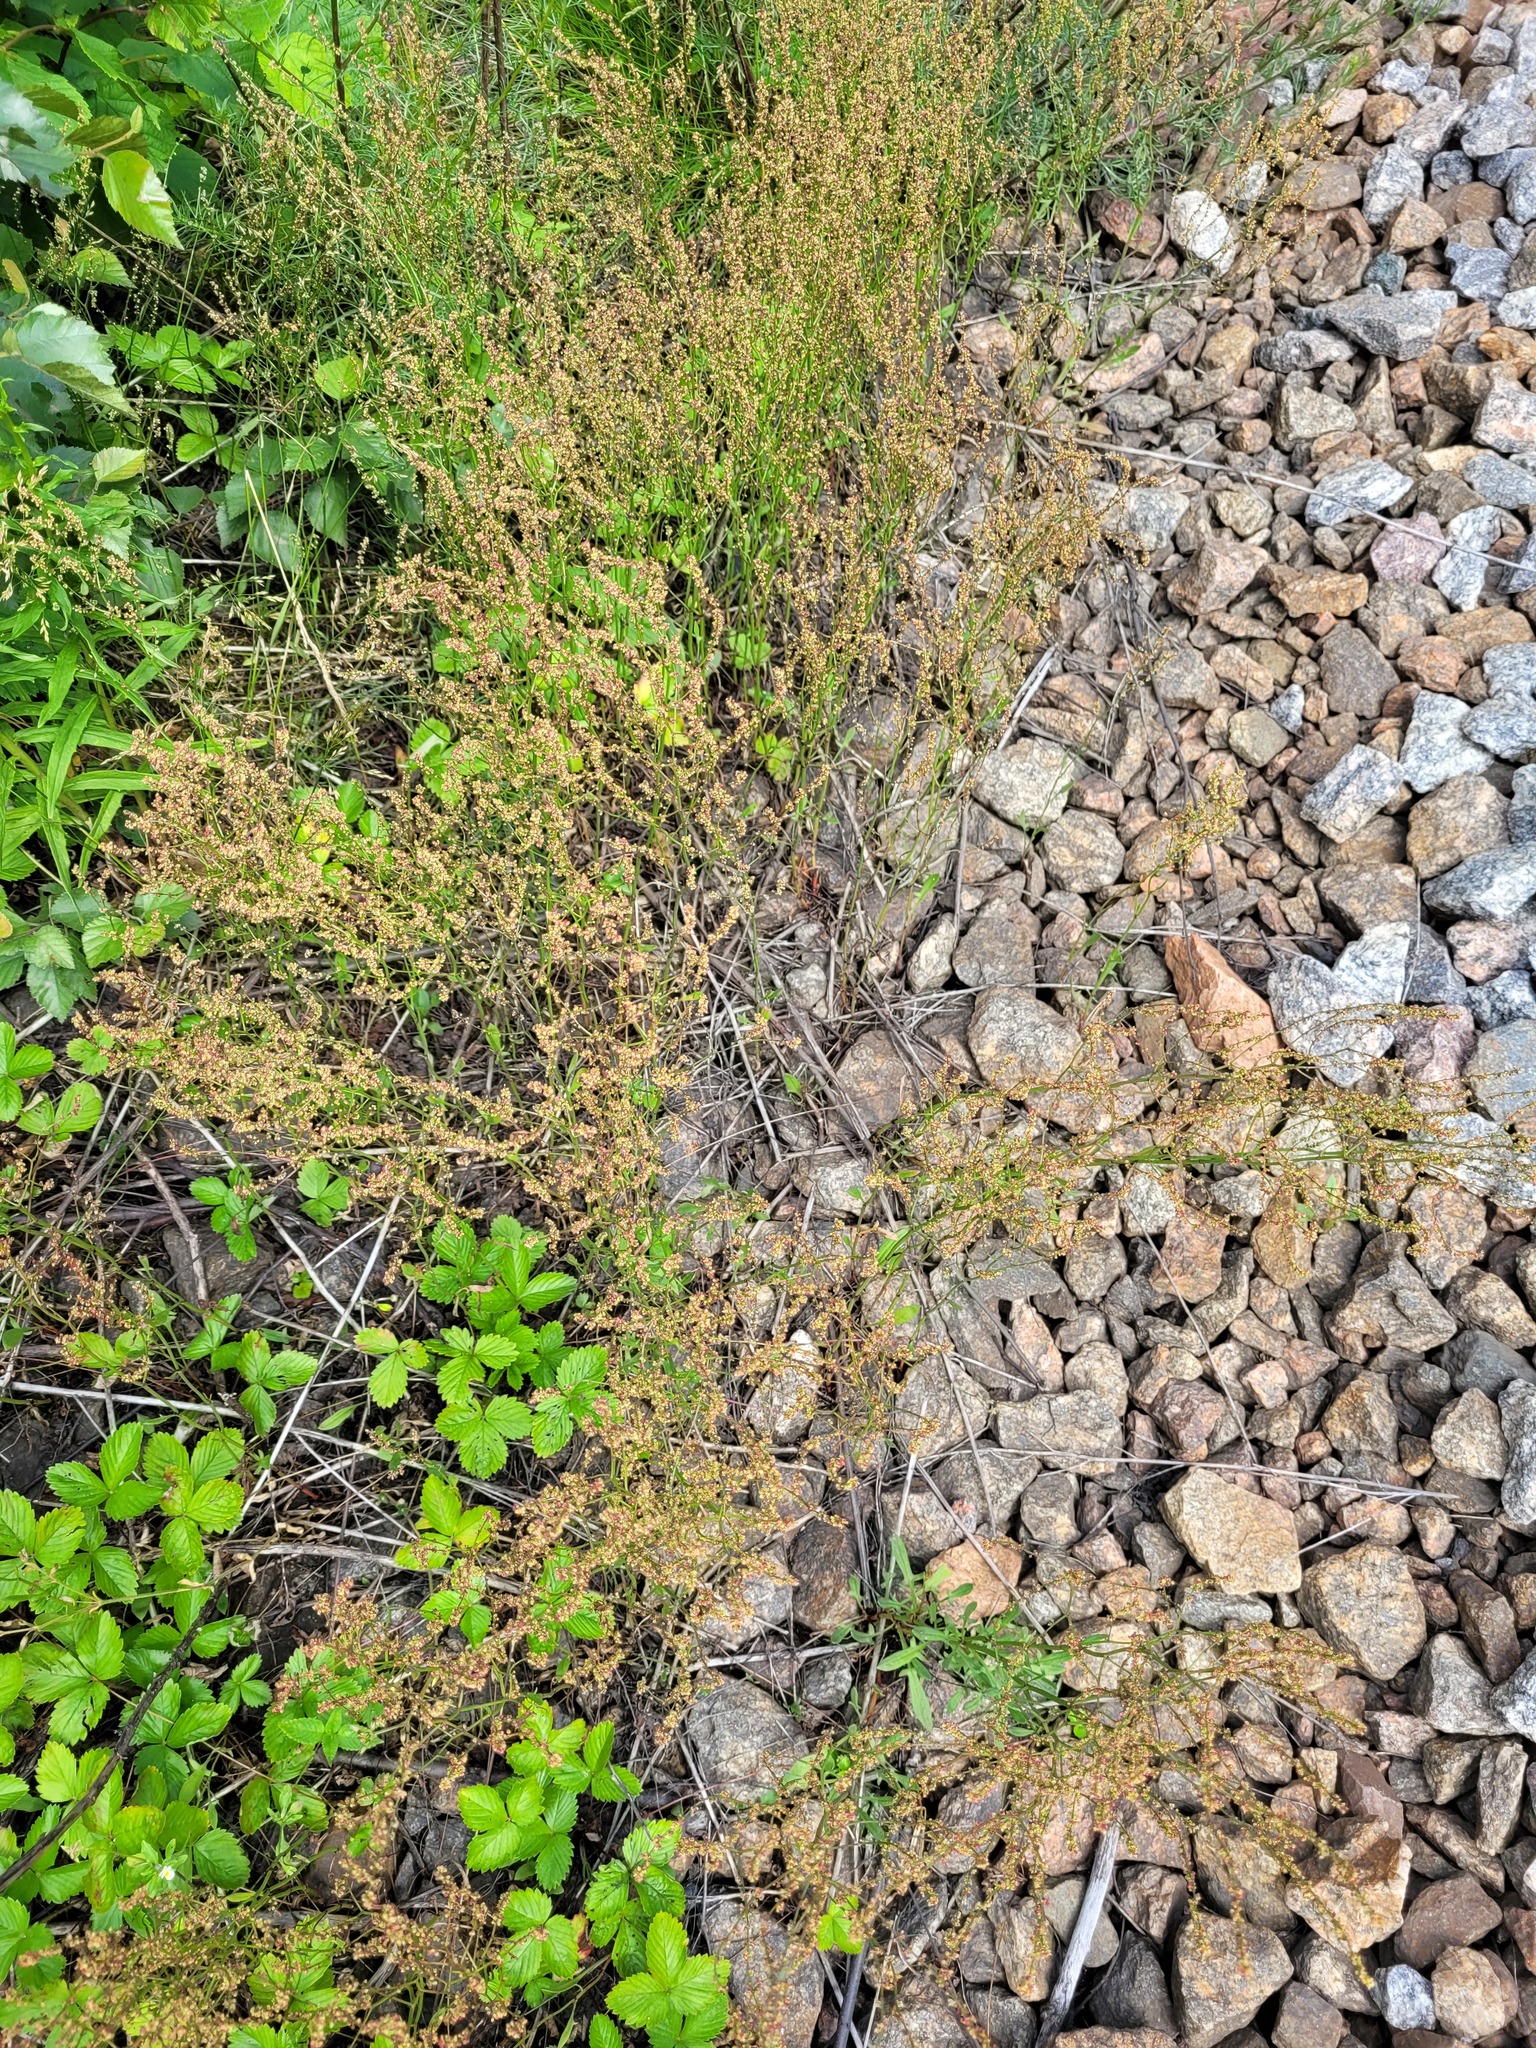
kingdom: Plantae
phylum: Tracheophyta
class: Magnoliopsida
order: Caryophyllales
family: Polygonaceae
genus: Rumex
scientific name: Rumex acetosella
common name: Common sheep sorrel
